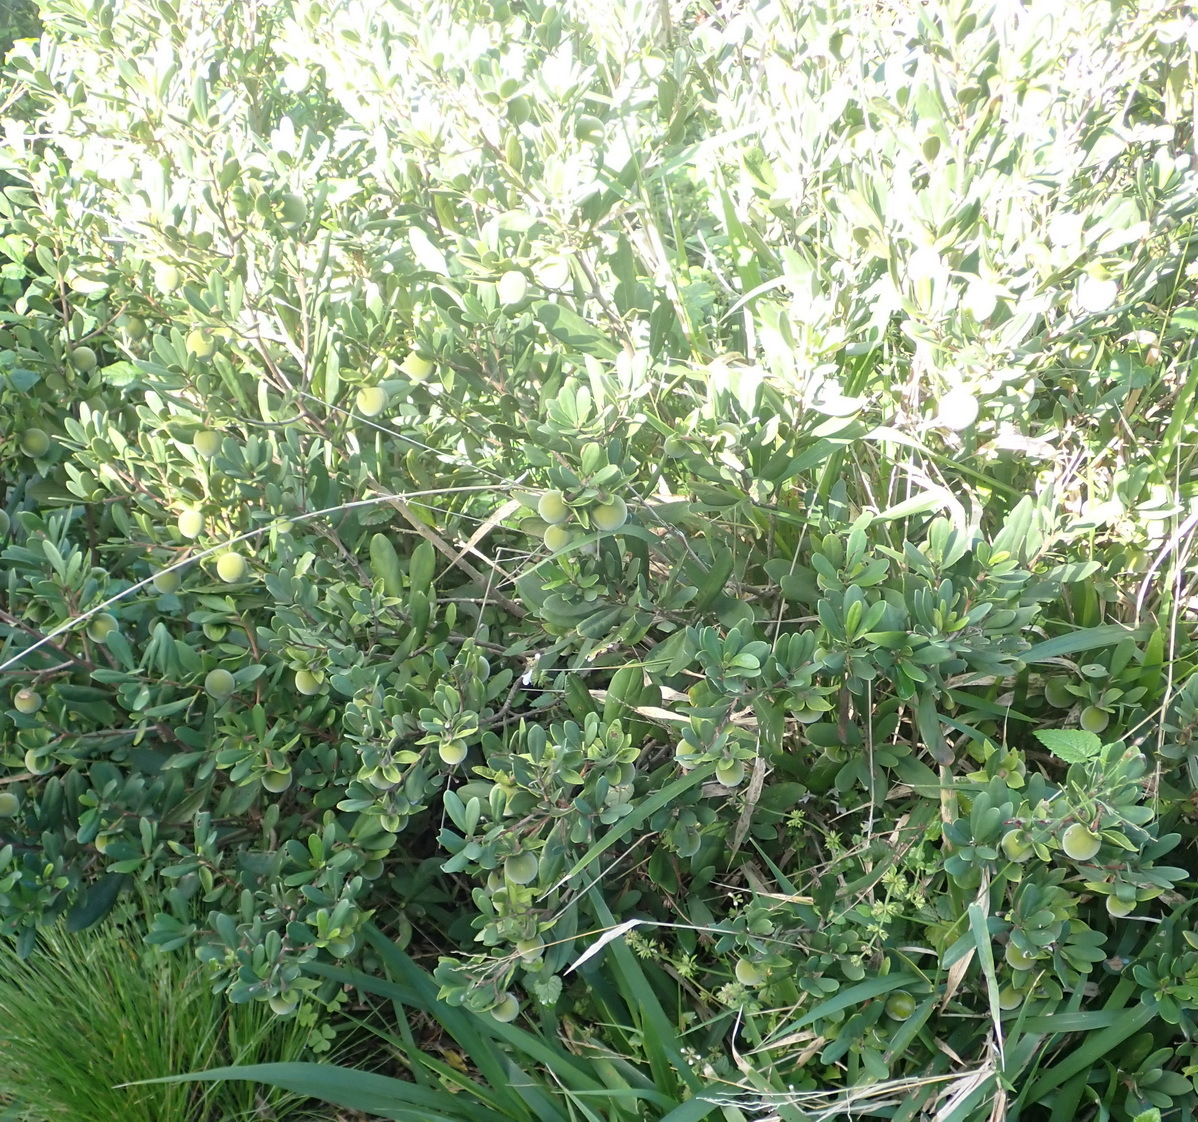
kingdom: Plantae
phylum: Tracheophyta
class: Magnoliopsida
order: Ericales
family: Ebenaceae
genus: Diospyros
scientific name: Diospyros dichrophylla
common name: Common star-apple
